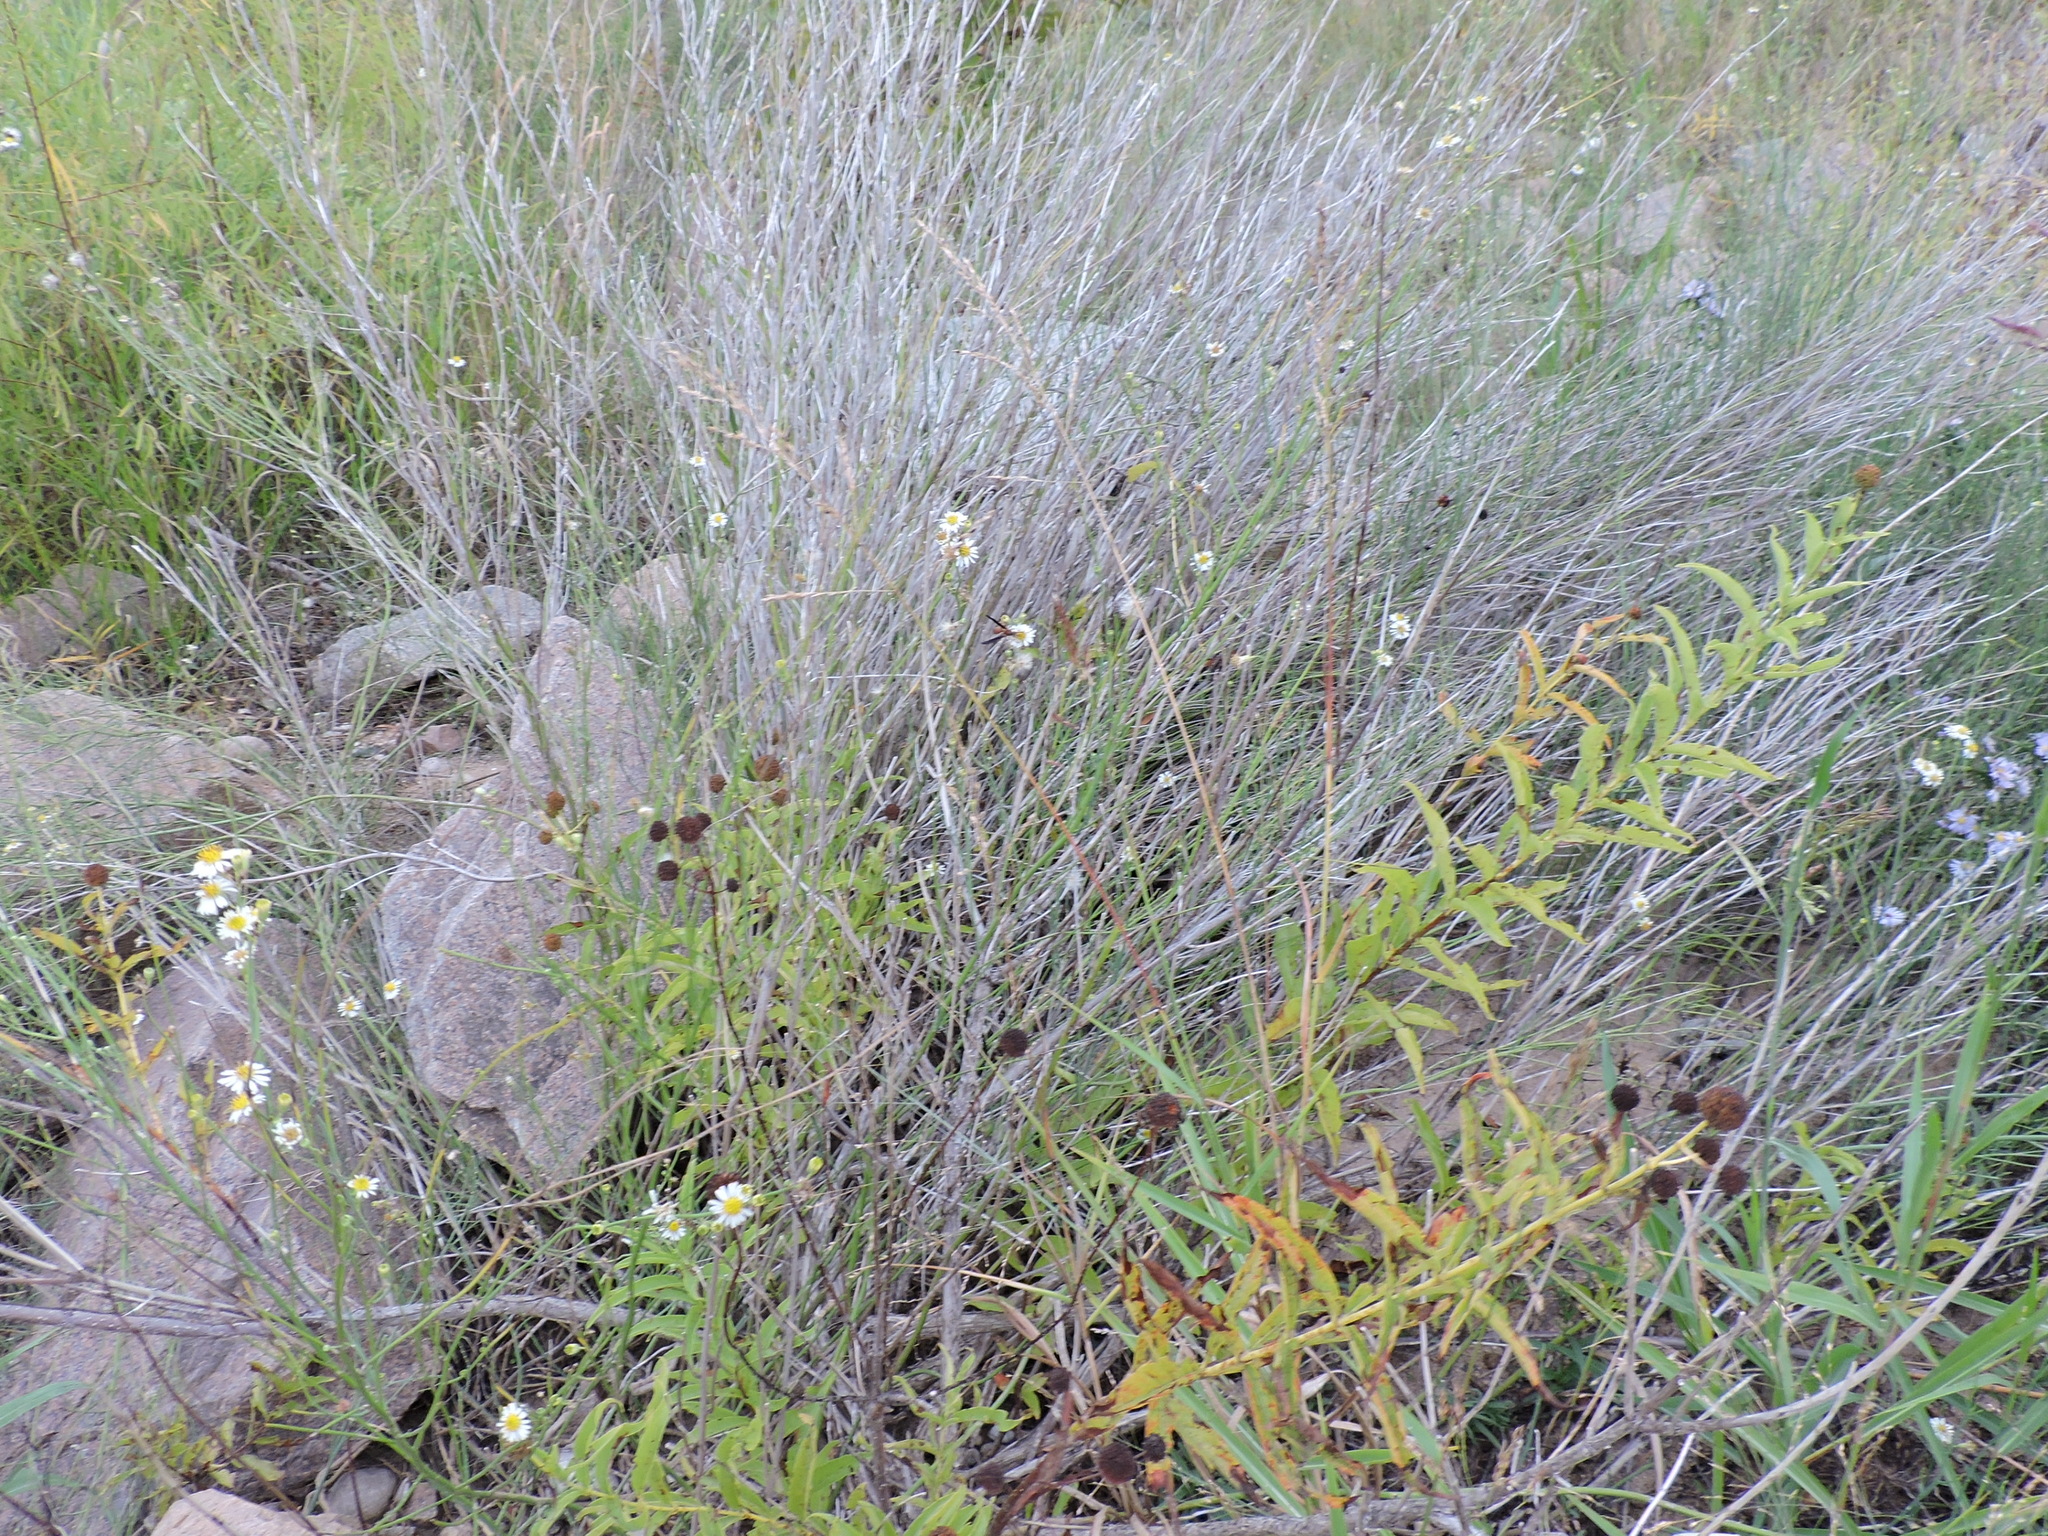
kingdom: Plantae
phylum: Tracheophyta
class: Magnoliopsida
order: Asterales
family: Asteraceae
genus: Chloracantha
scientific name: Chloracantha spinosa
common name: Mexican devilweed
